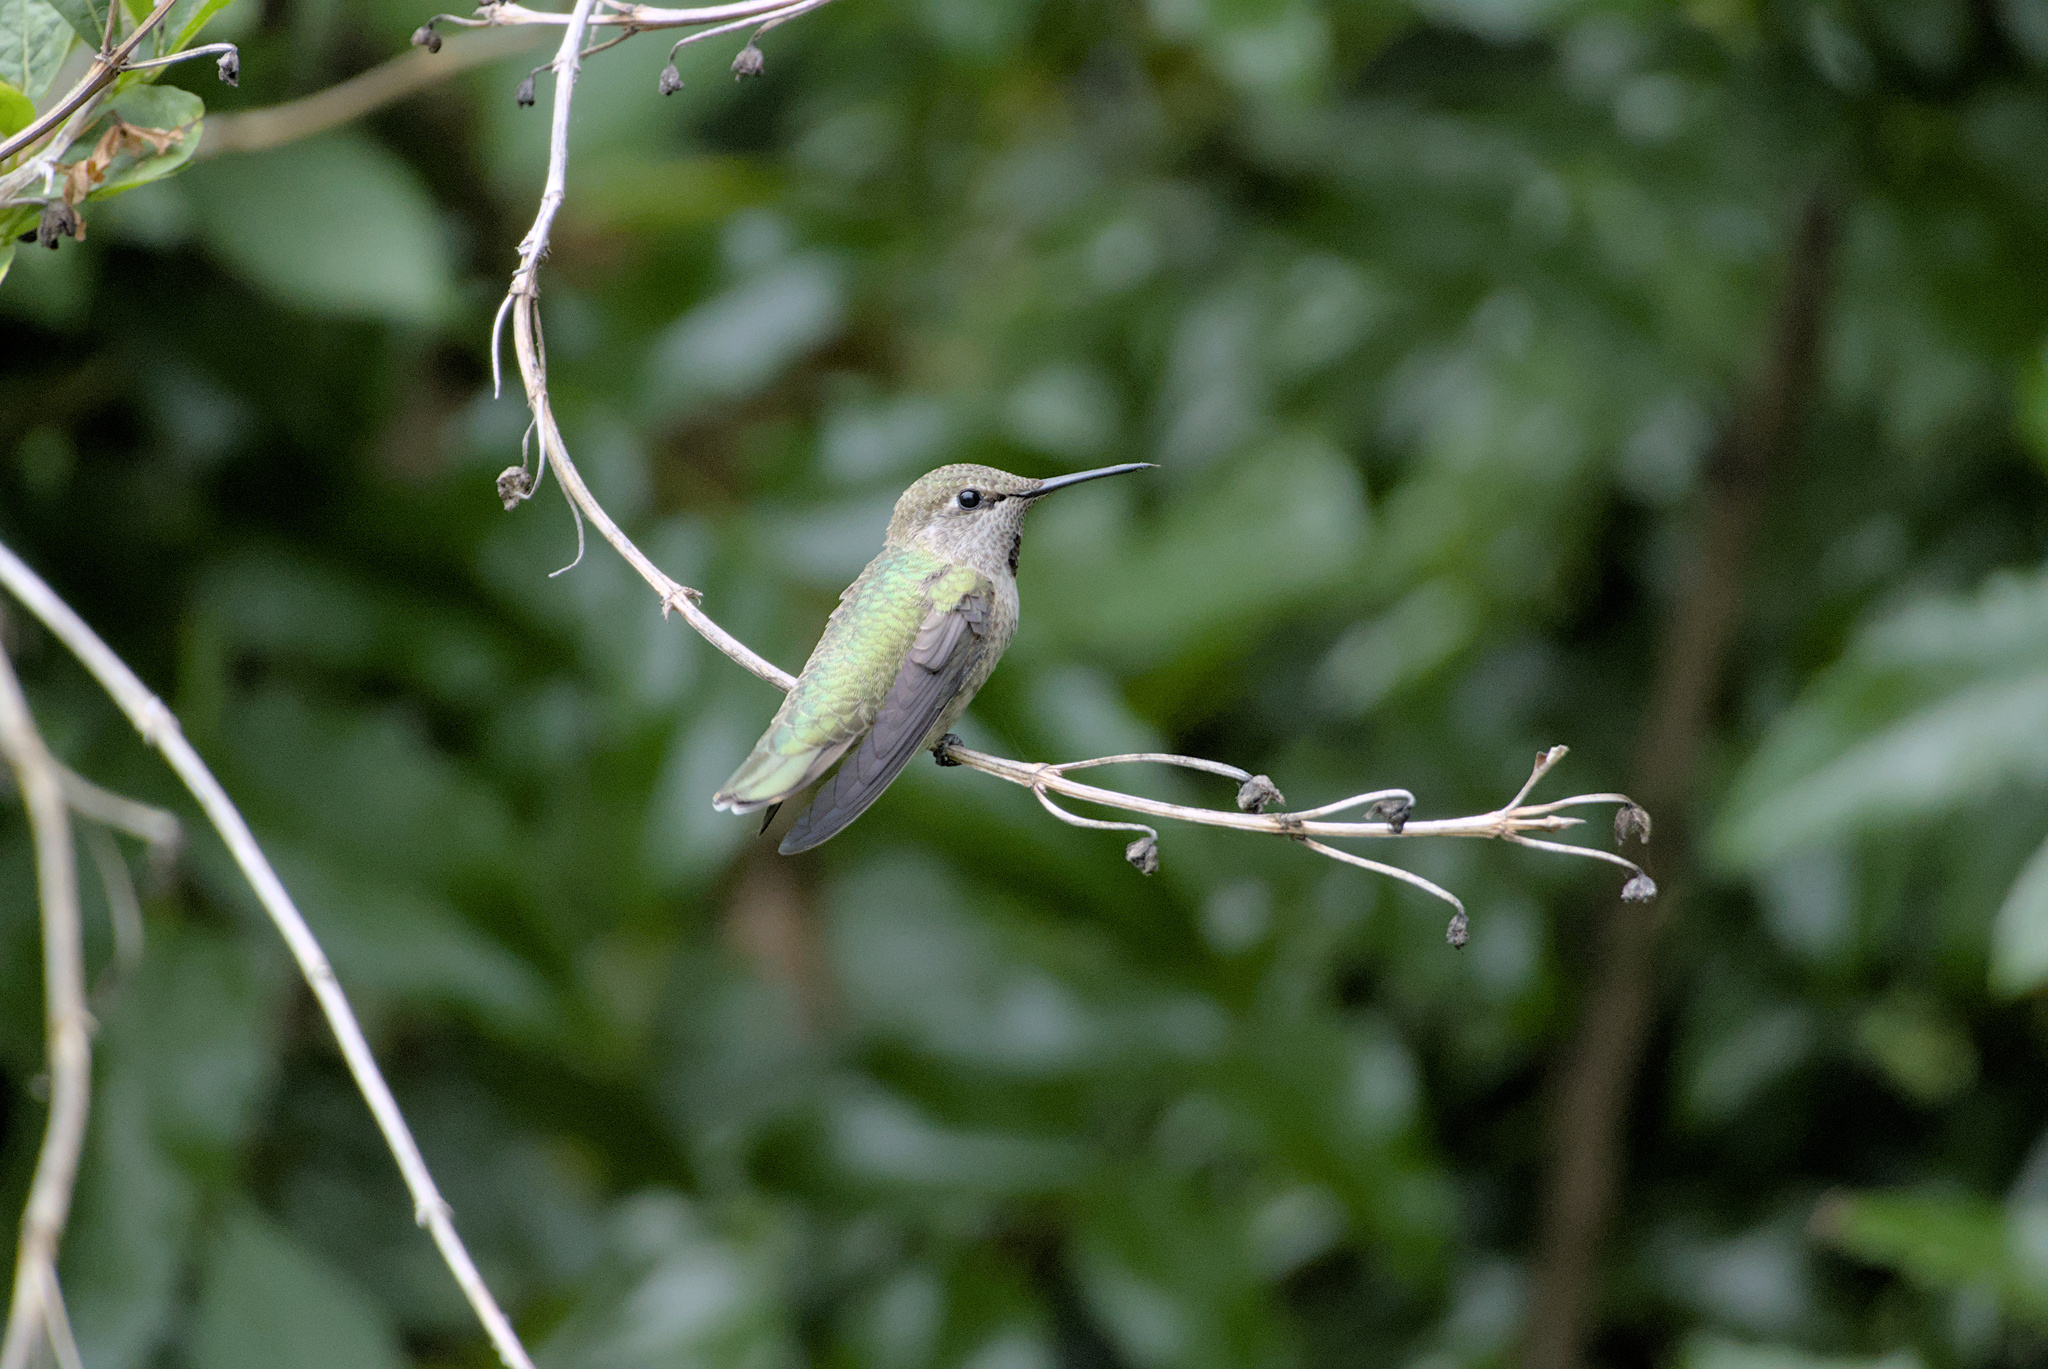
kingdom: Animalia
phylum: Chordata
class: Aves
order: Apodiformes
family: Trochilidae
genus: Calypte
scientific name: Calypte anna
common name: Anna's hummingbird
